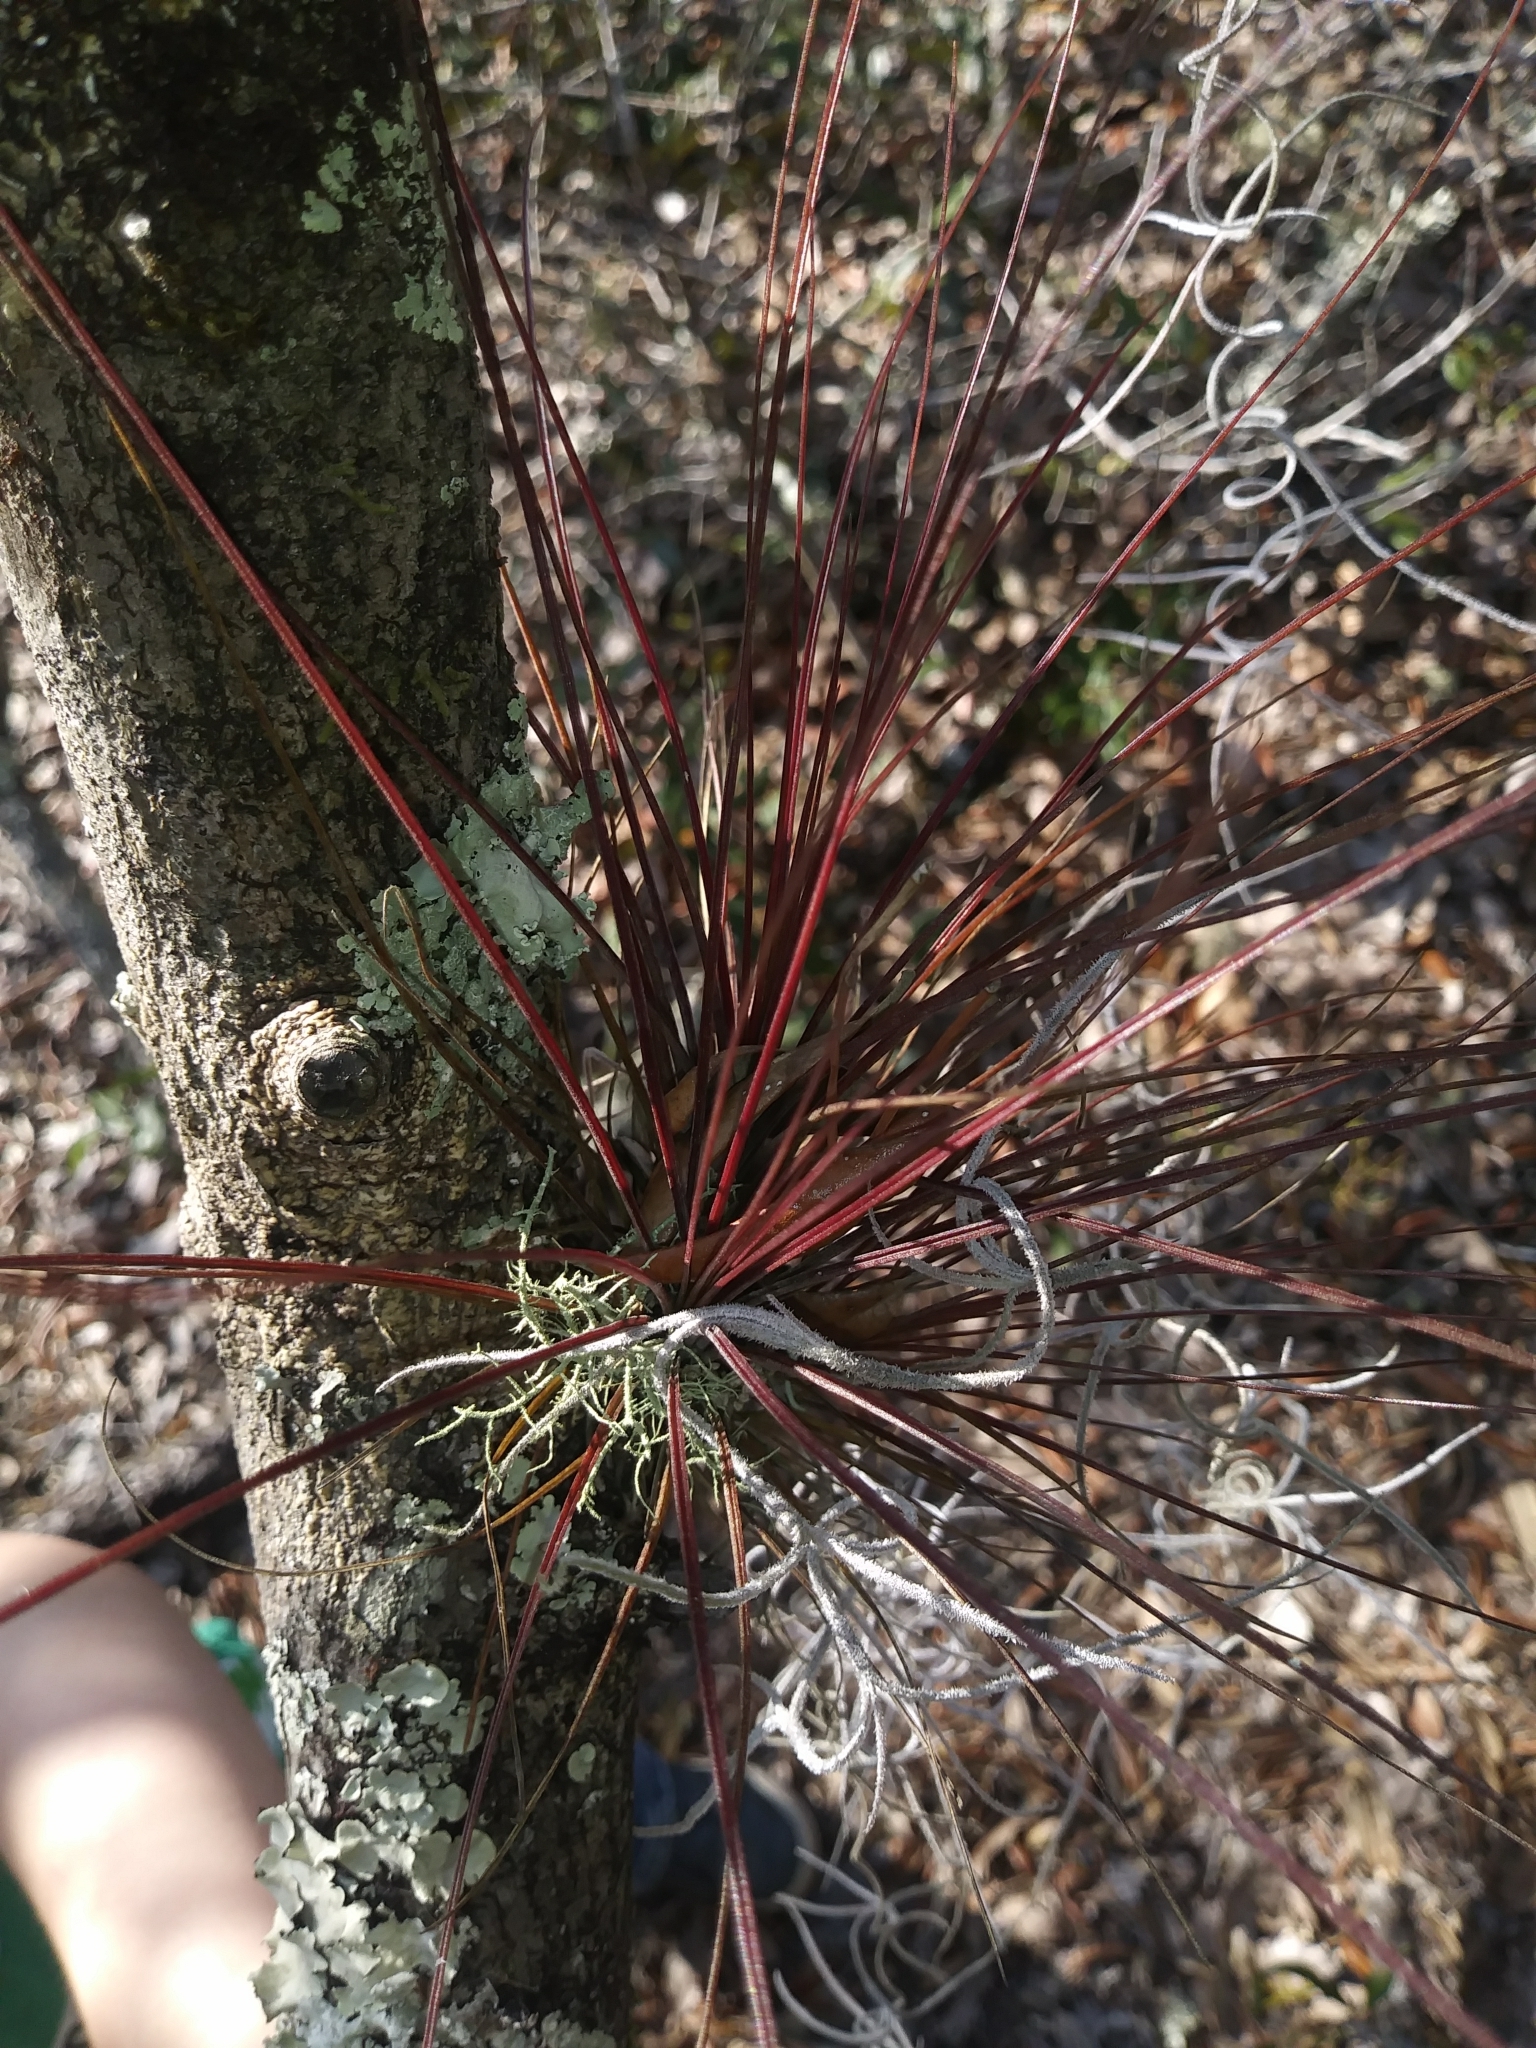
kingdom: Plantae
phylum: Tracheophyta
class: Liliopsida
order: Poales
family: Bromeliaceae
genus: Tillandsia
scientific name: Tillandsia setacea
